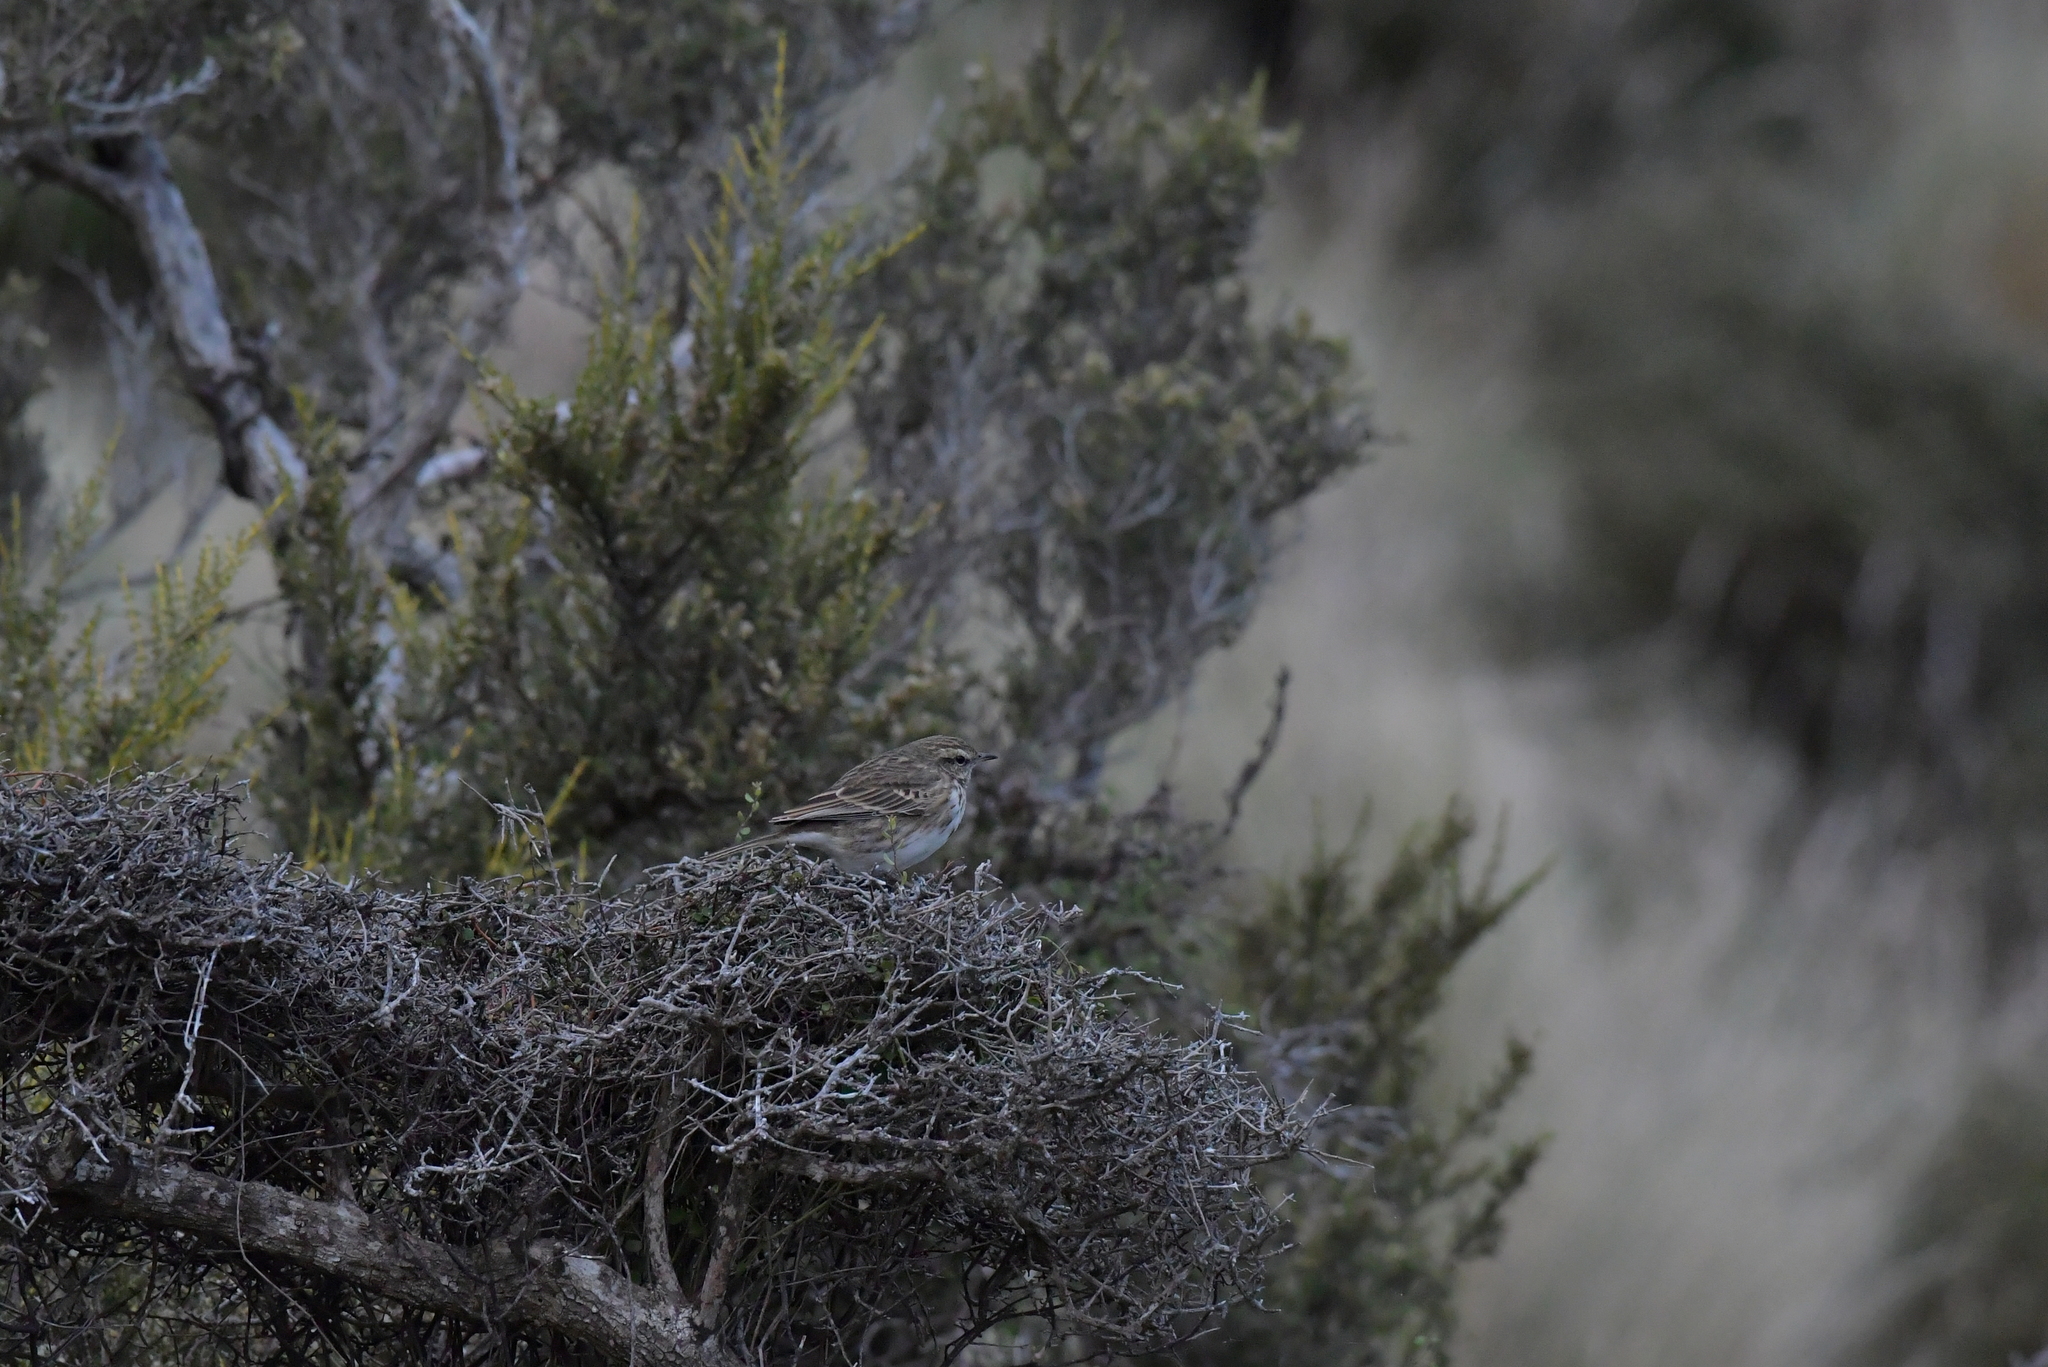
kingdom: Animalia
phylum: Chordata
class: Aves
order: Passeriformes
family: Motacillidae
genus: Anthus
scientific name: Anthus novaeseelandiae
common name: New zealand pipit
